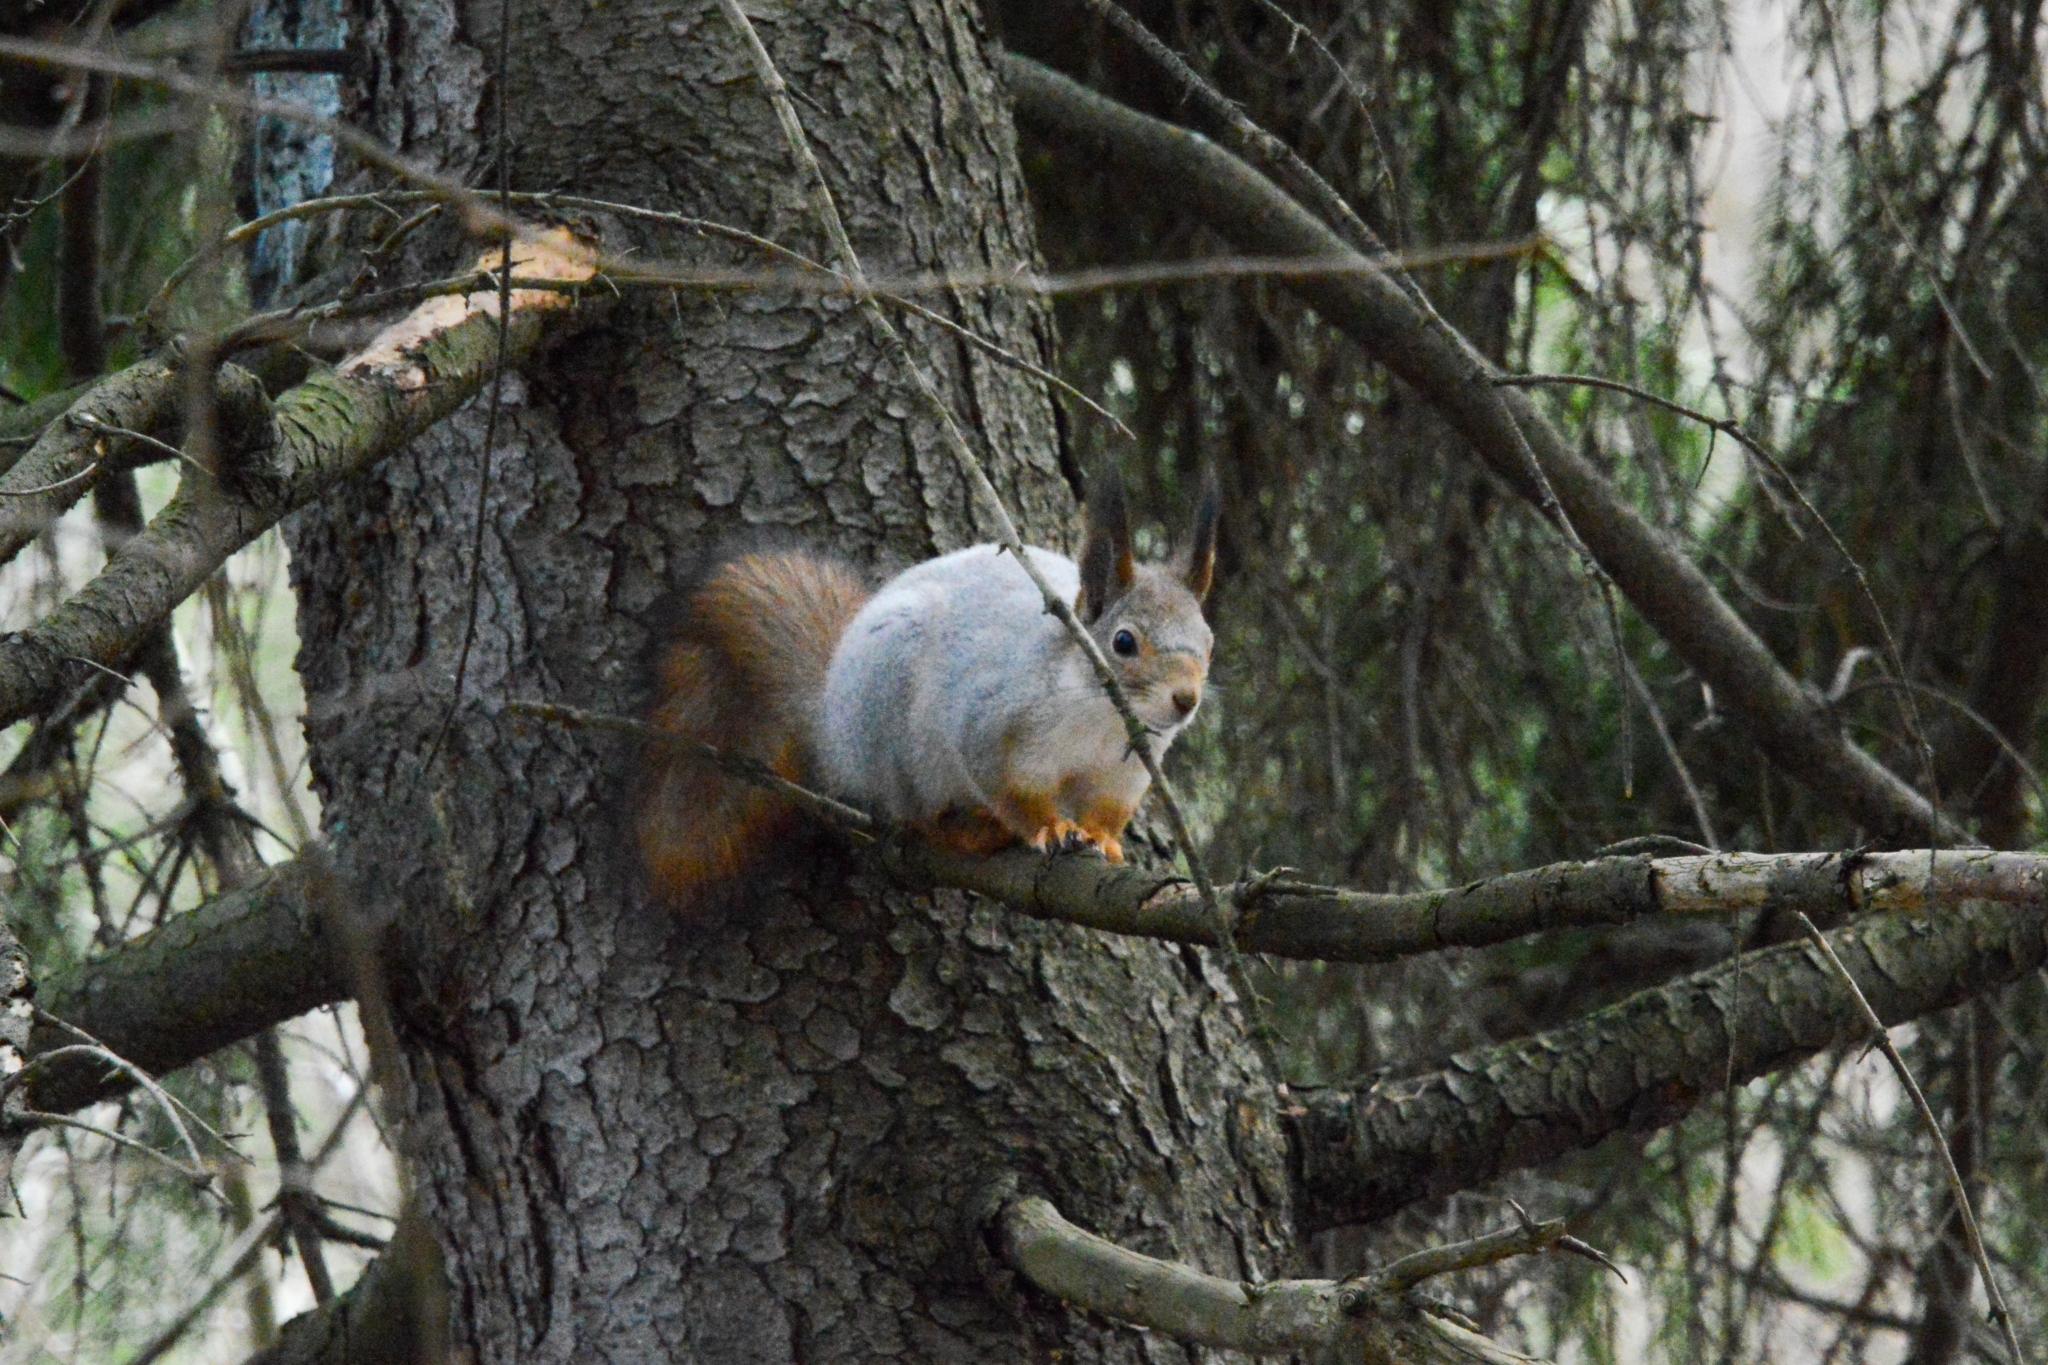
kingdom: Animalia
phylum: Chordata
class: Mammalia
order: Rodentia
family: Sciuridae
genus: Sciurus
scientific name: Sciurus vulgaris
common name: Eurasian red squirrel
